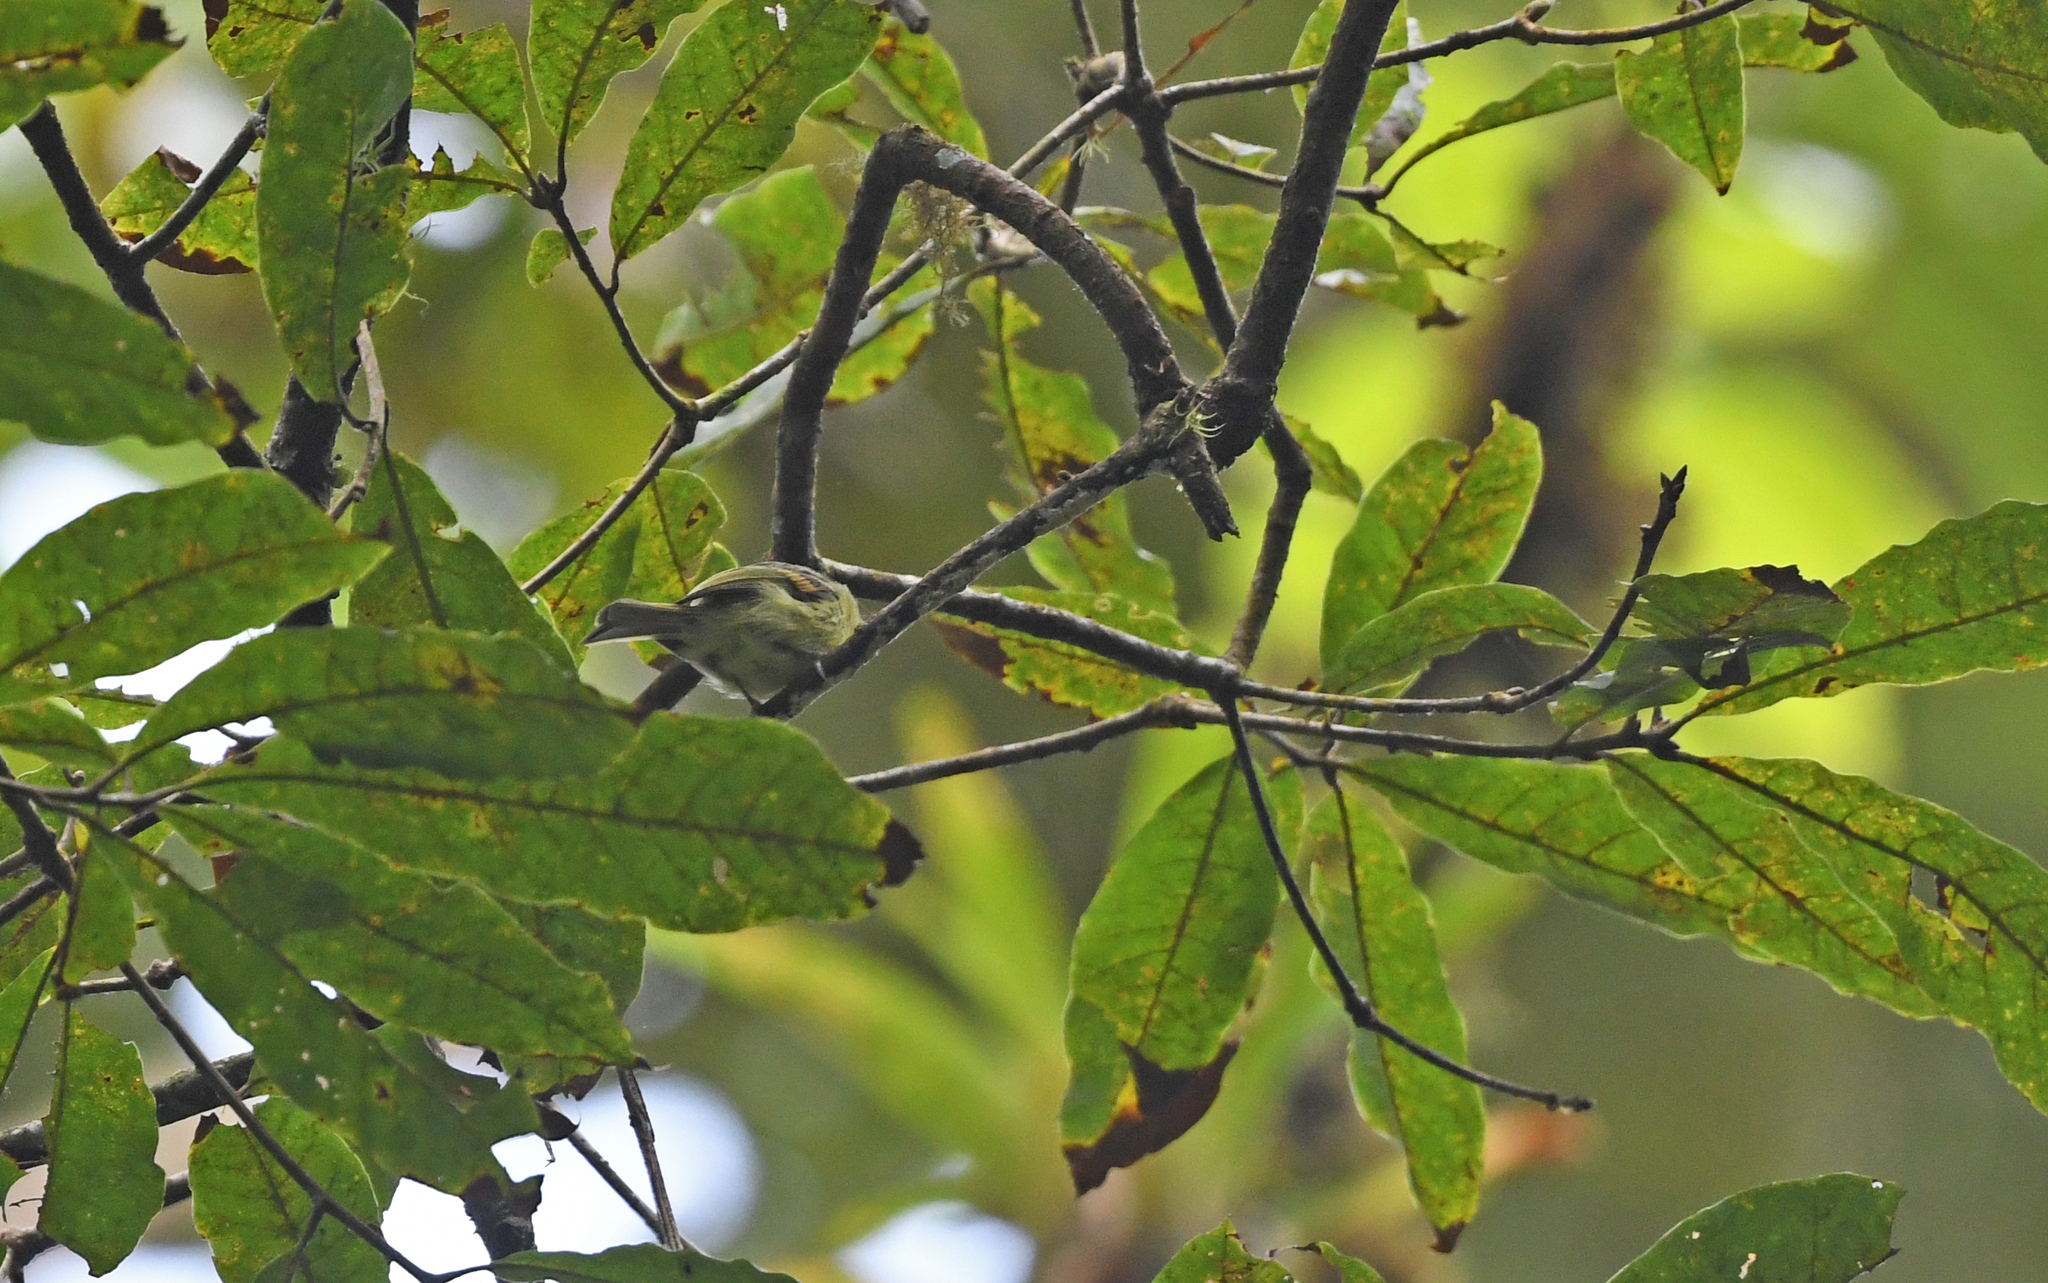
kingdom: Animalia
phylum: Chordata
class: Aves
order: Passeriformes
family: Tyrannidae
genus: Phylloscartes
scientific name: Phylloscartes poecilotis
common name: Variegated bristle-tyrant
